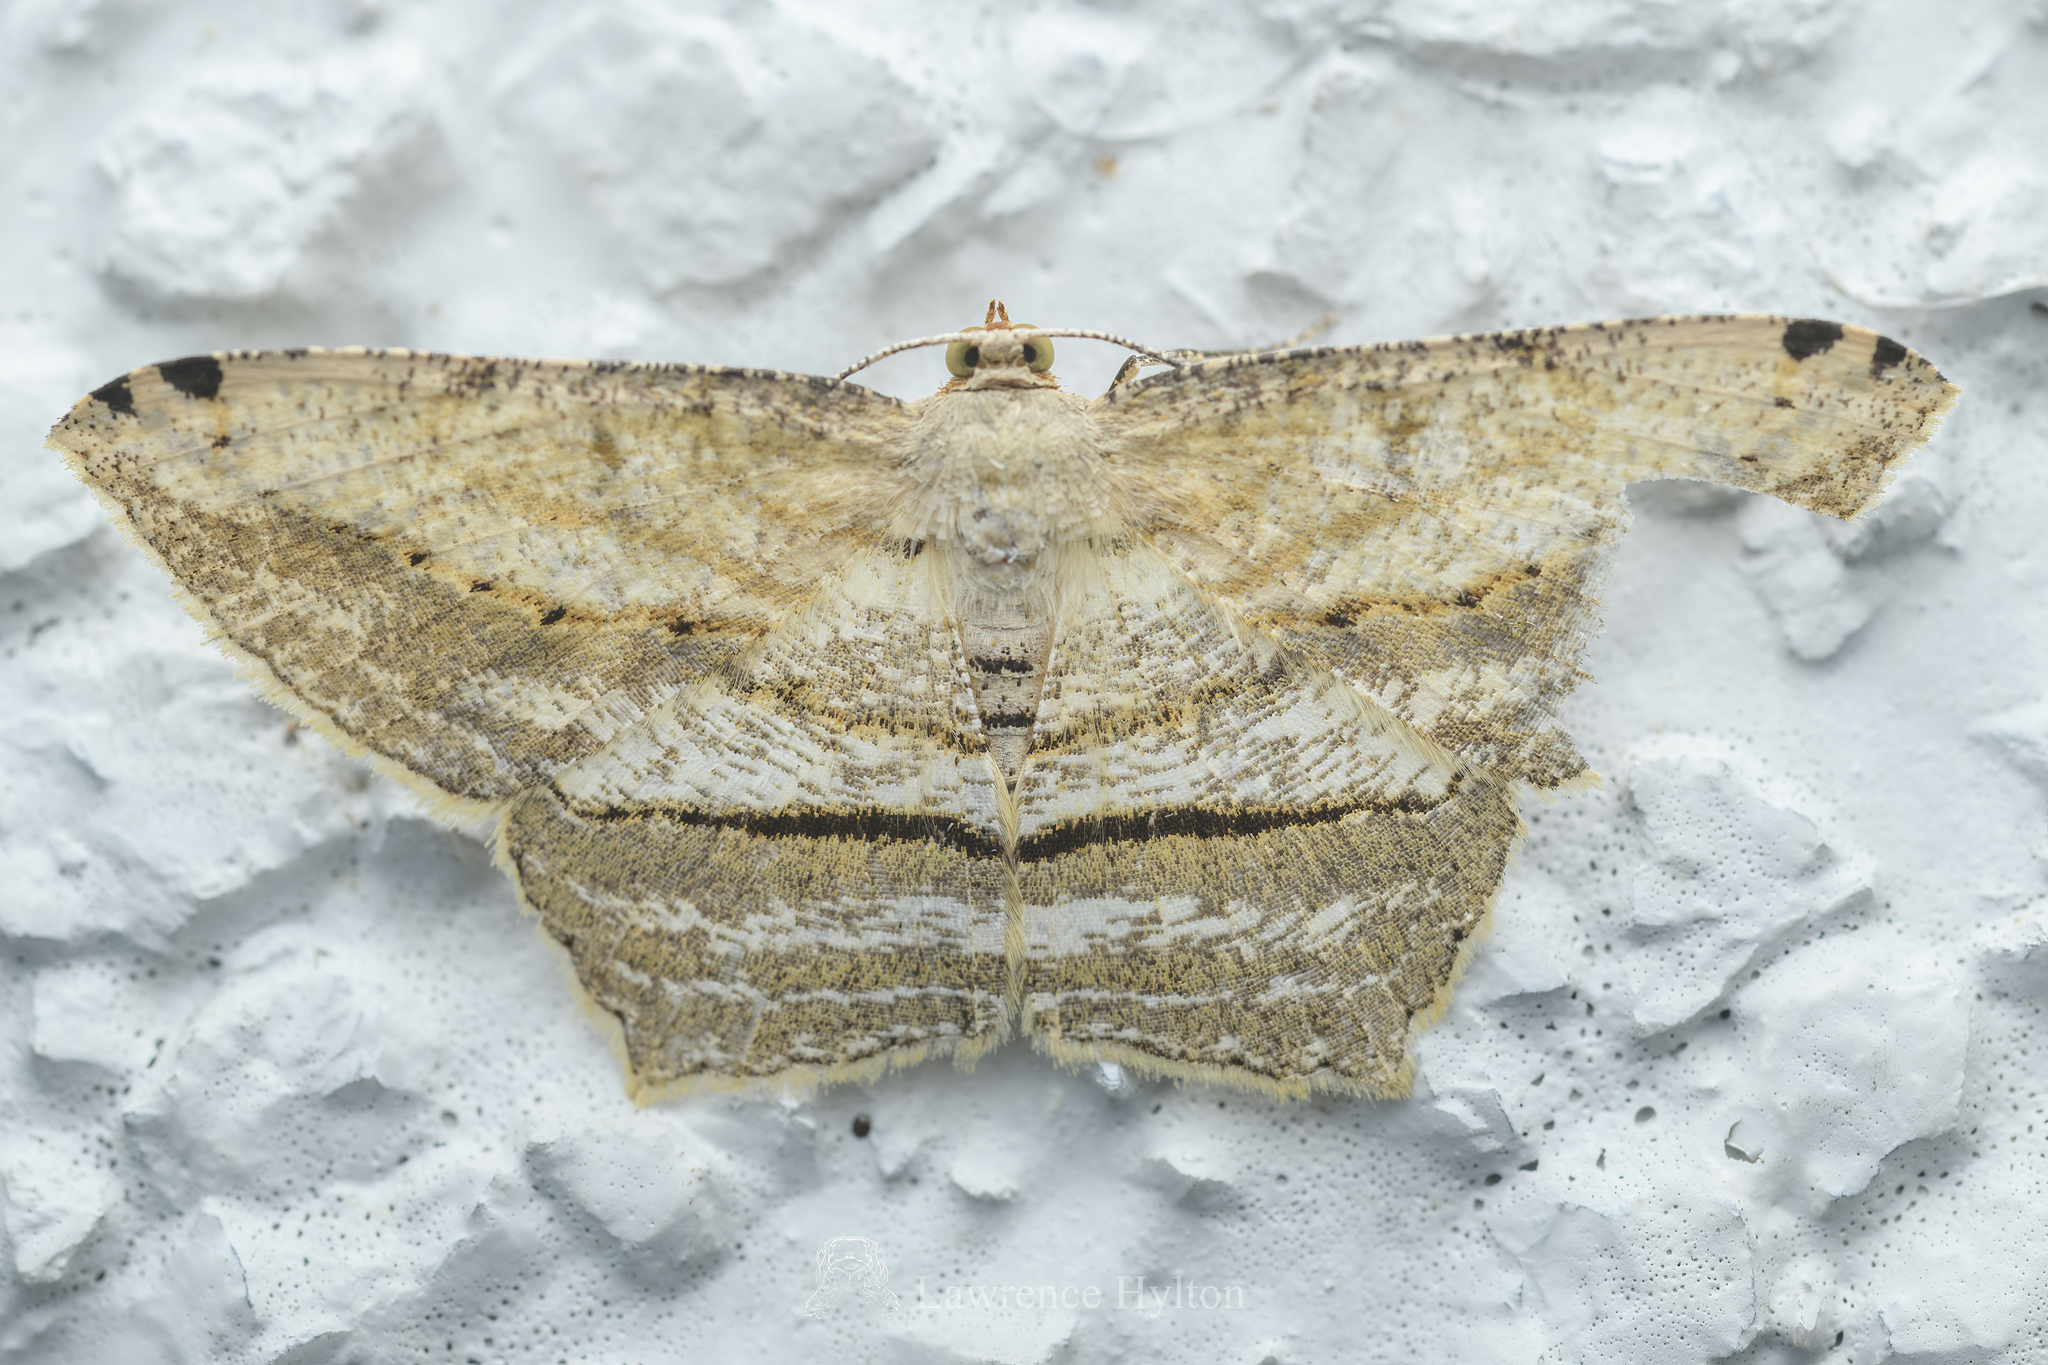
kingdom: Animalia
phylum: Arthropoda
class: Insecta
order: Lepidoptera
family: Geometridae
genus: Calletaera
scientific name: Calletaera dentata
